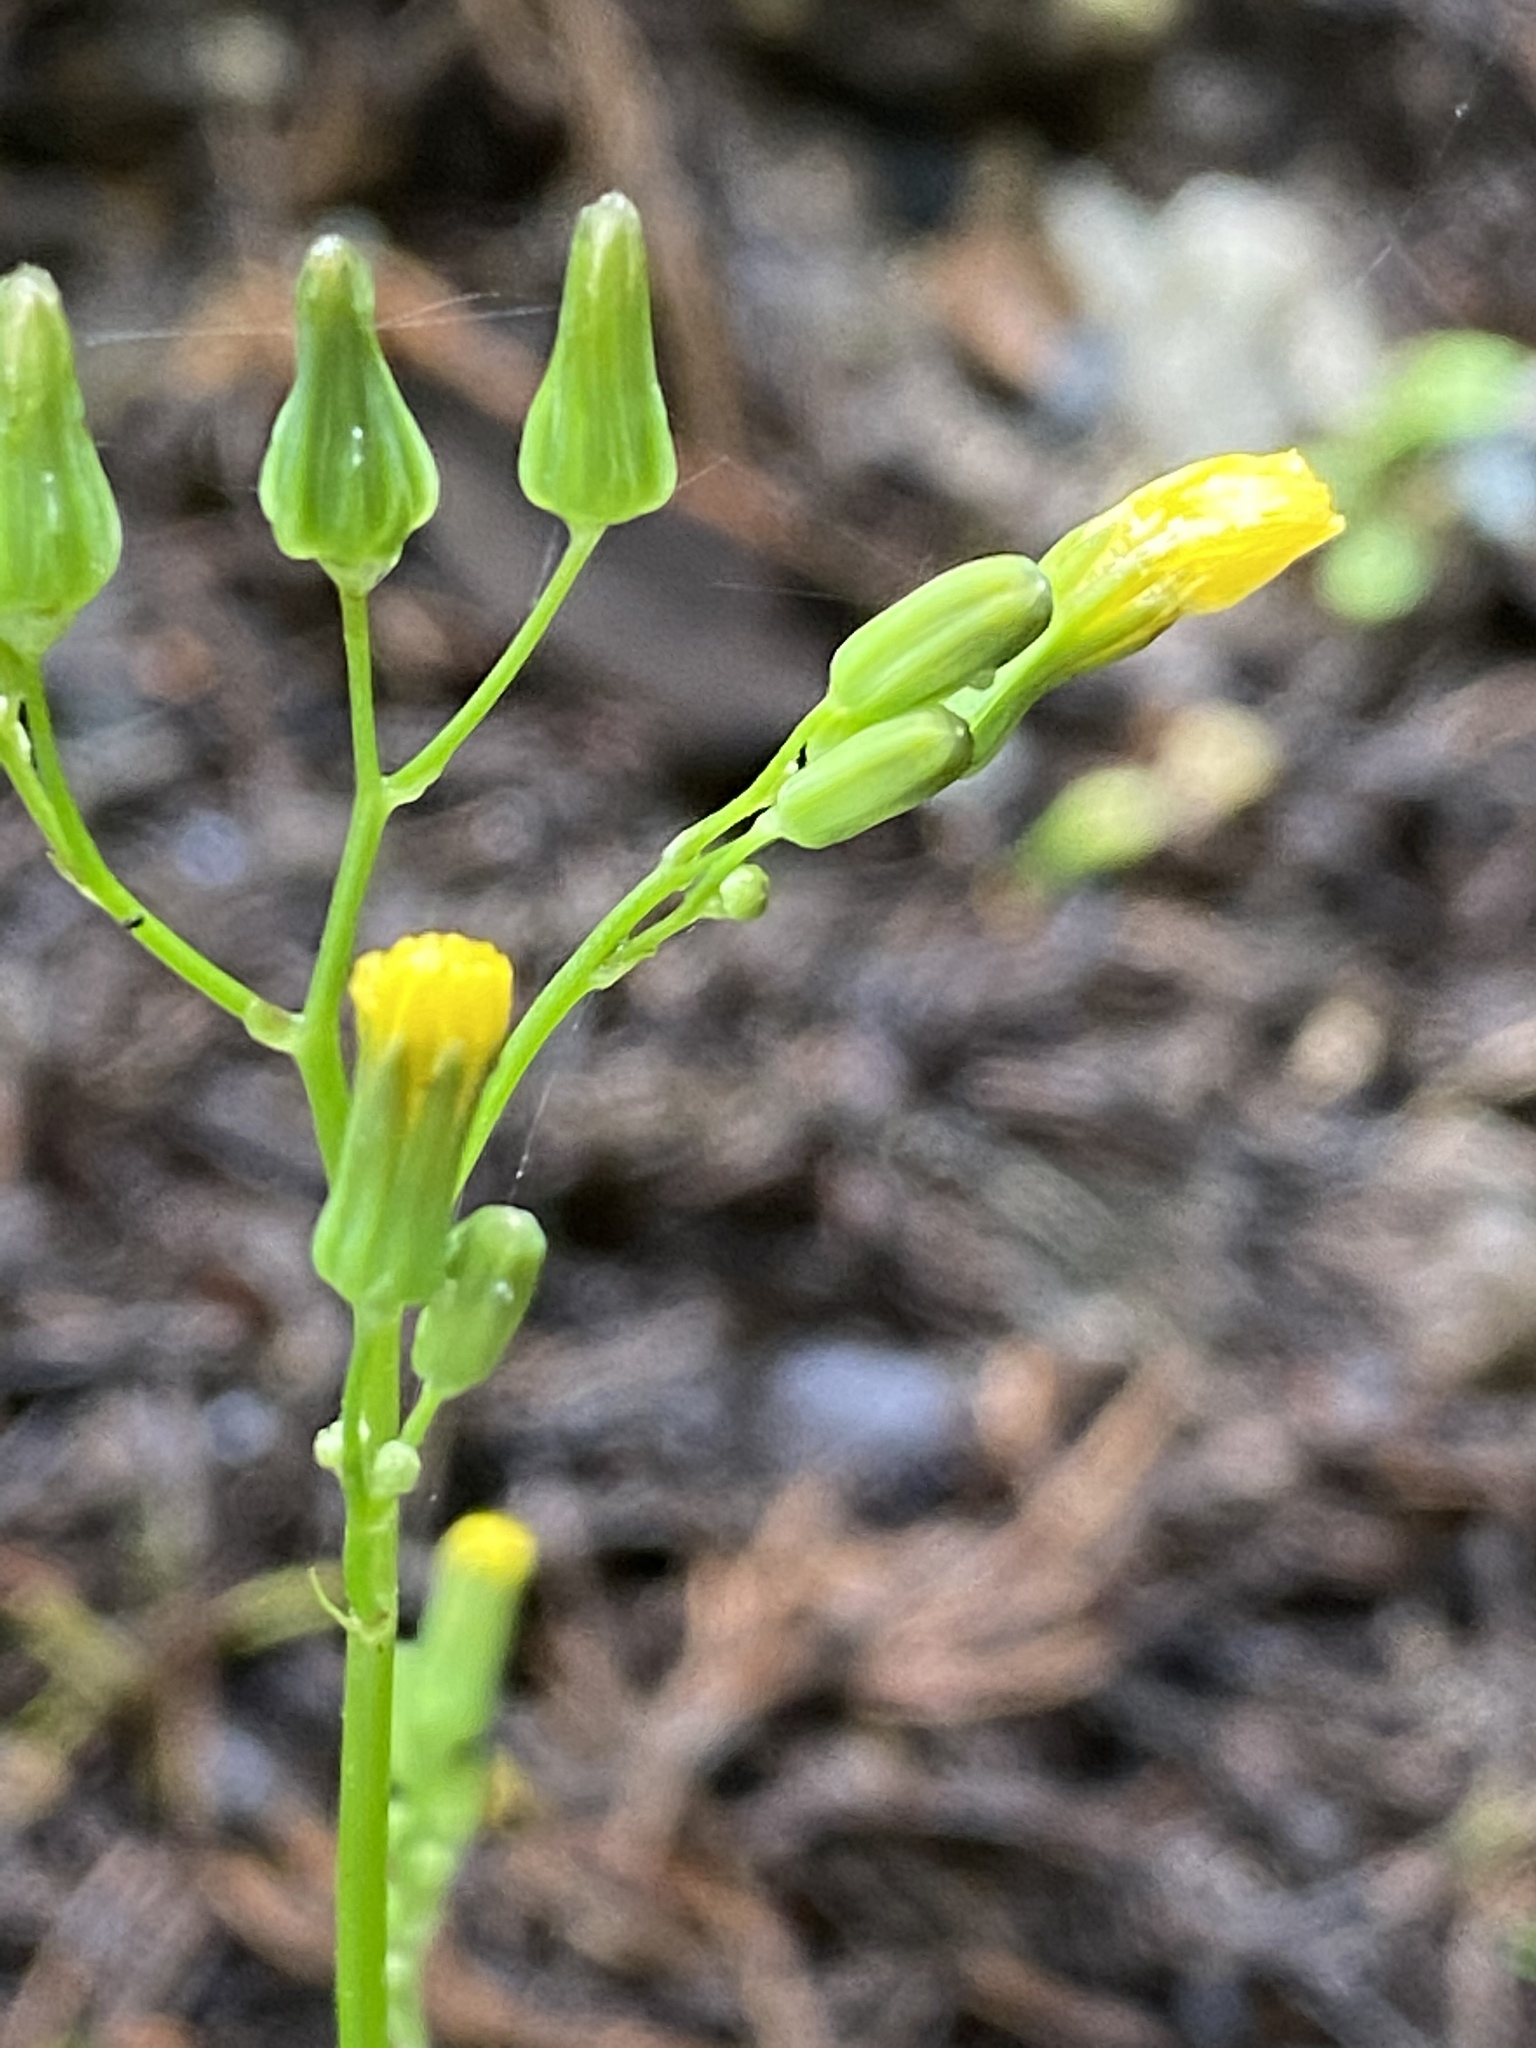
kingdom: Plantae
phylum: Tracheophyta
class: Magnoliopsida
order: Asterales
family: Asteraceae
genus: Youngia
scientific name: Youngia japonica
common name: Oriental false hawksbeard
